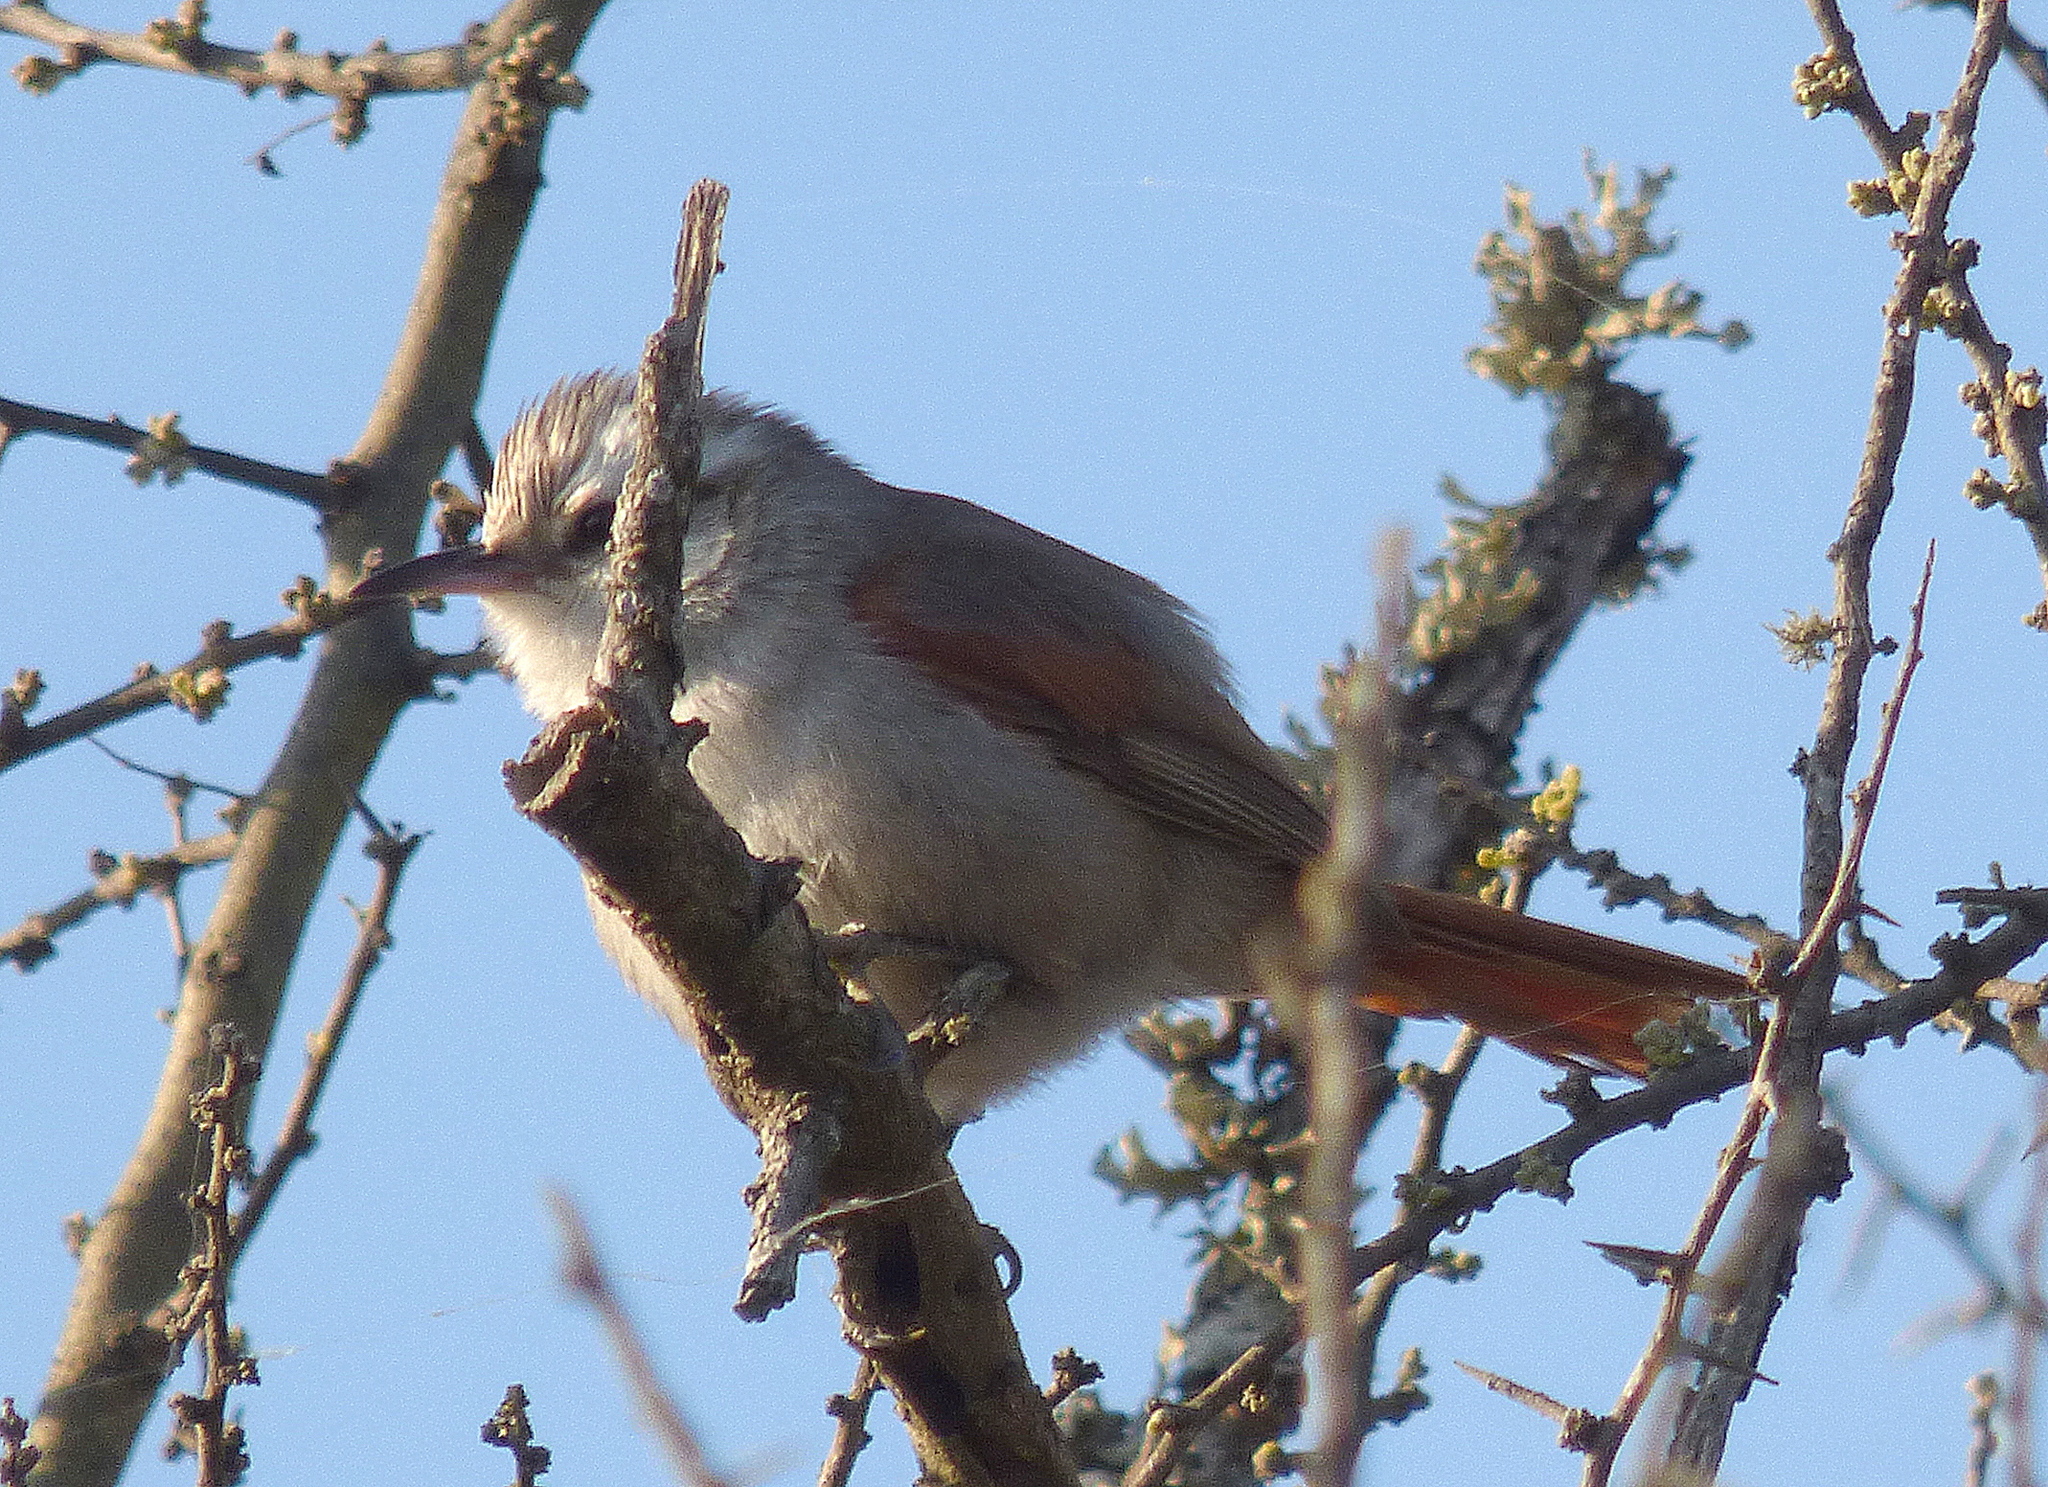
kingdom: Animalia
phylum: Chordata
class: Aves
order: Passeriformes
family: Furnariidae
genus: Cranioleuca
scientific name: Cranioleuca pyrrhophia
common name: Stripe-crowned spinetail
